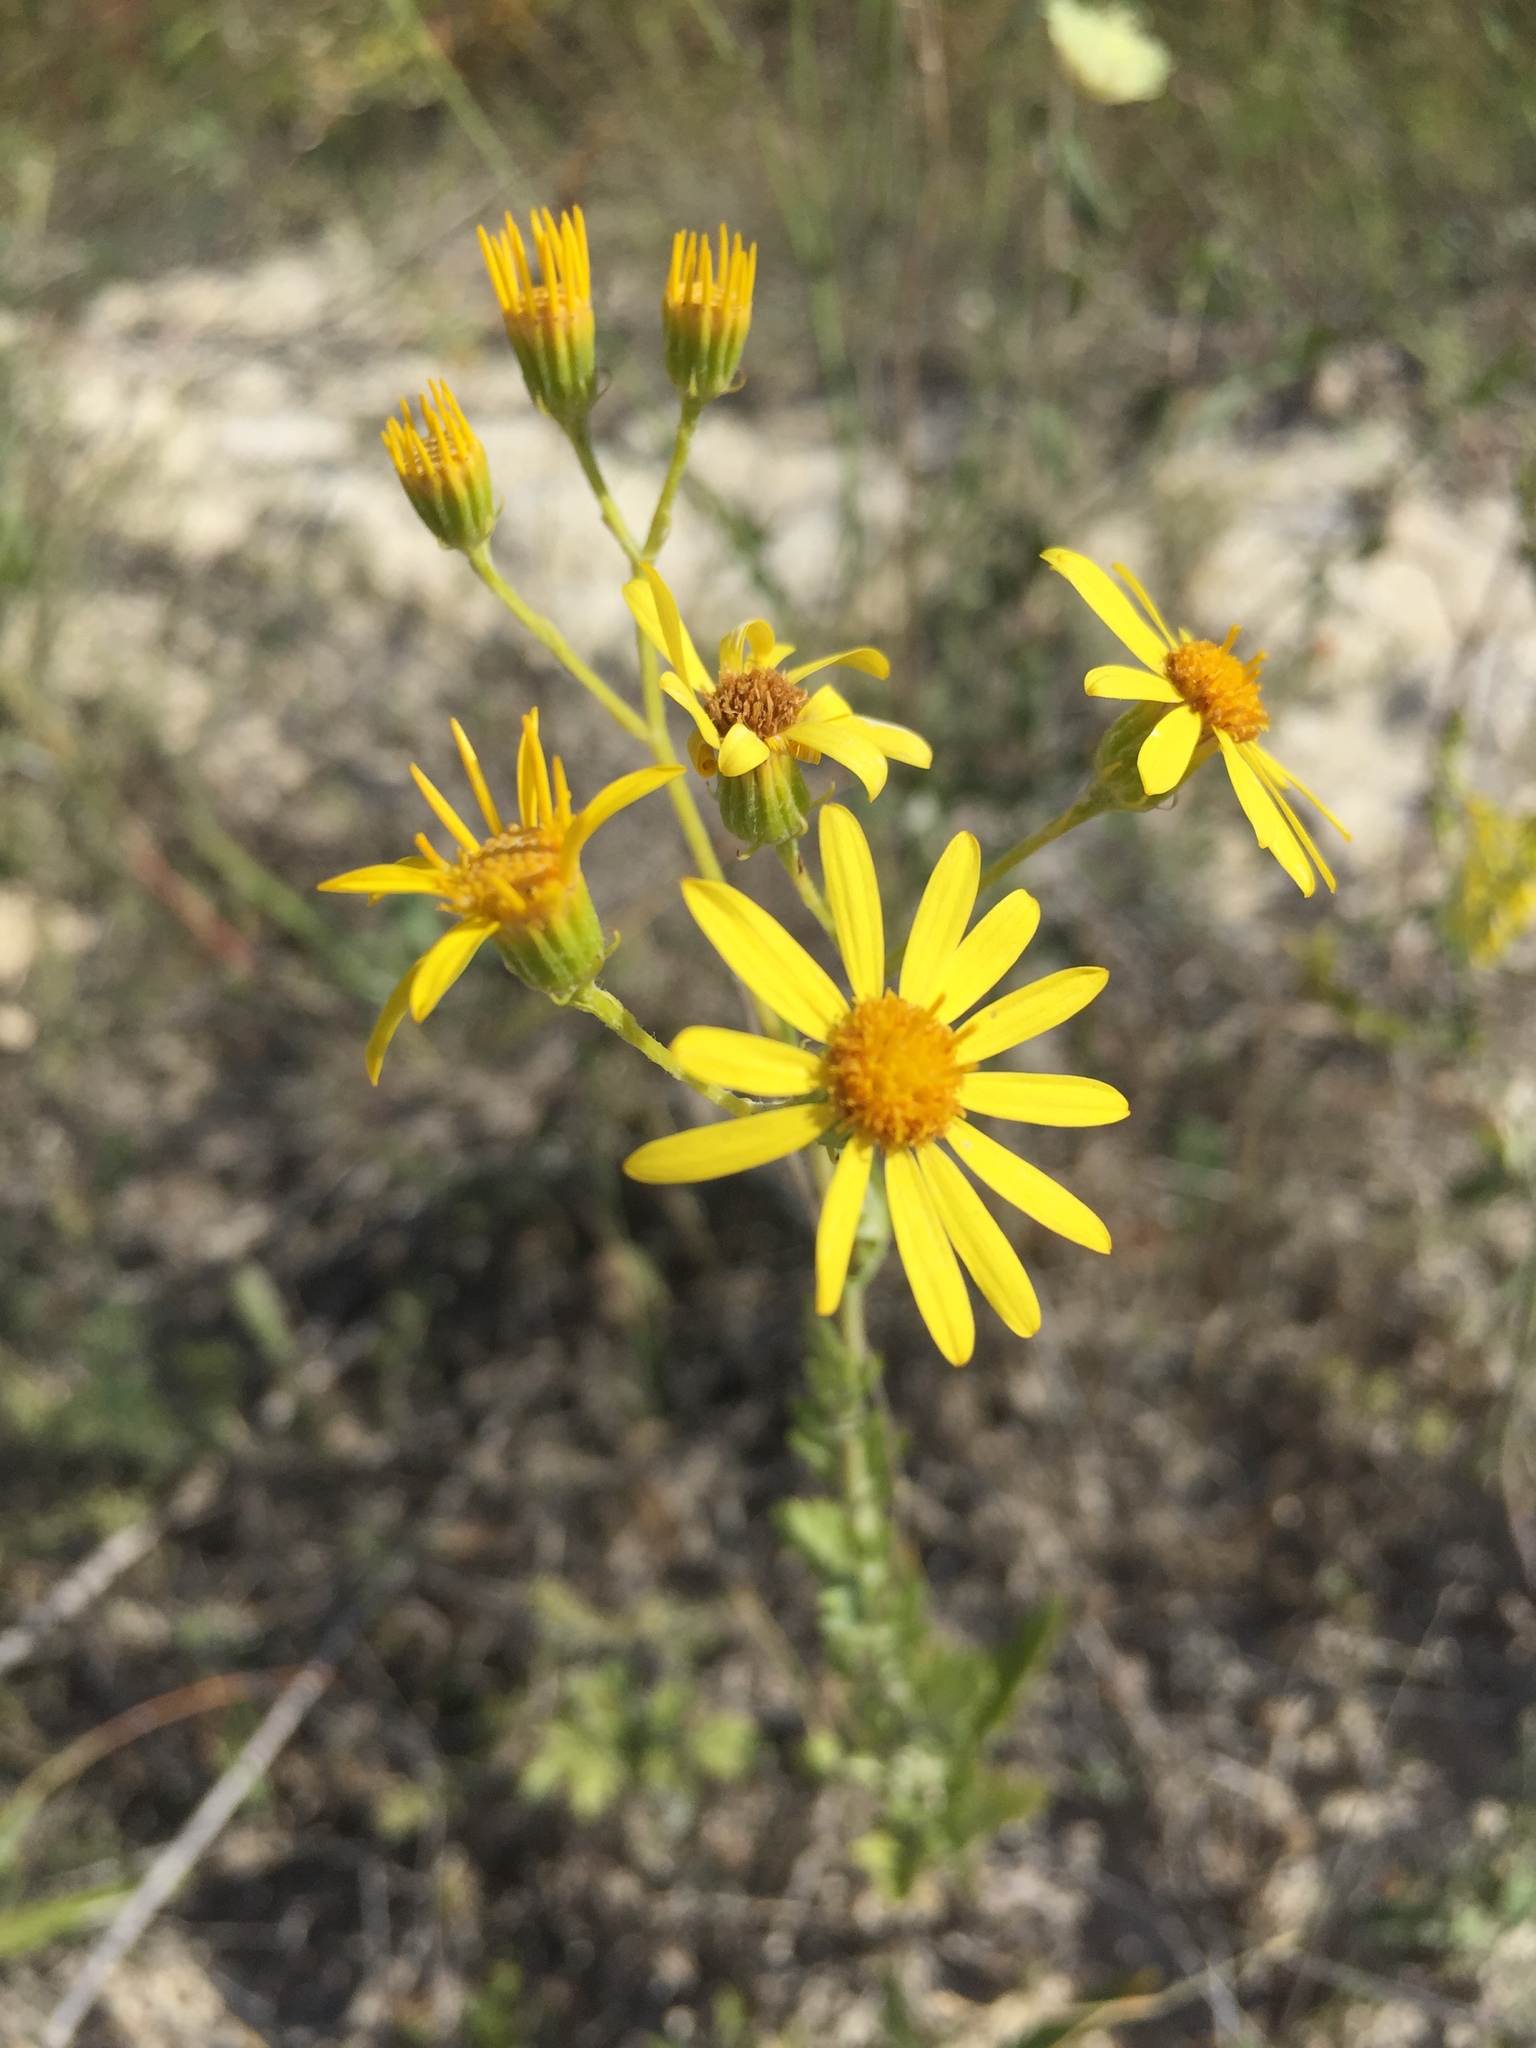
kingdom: Plantae
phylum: Tracheophyta
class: Magnoliopsida
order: Asterales
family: Asteraceae
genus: Jacobaea
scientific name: Jacobaea vulgaris
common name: Stinking willie
